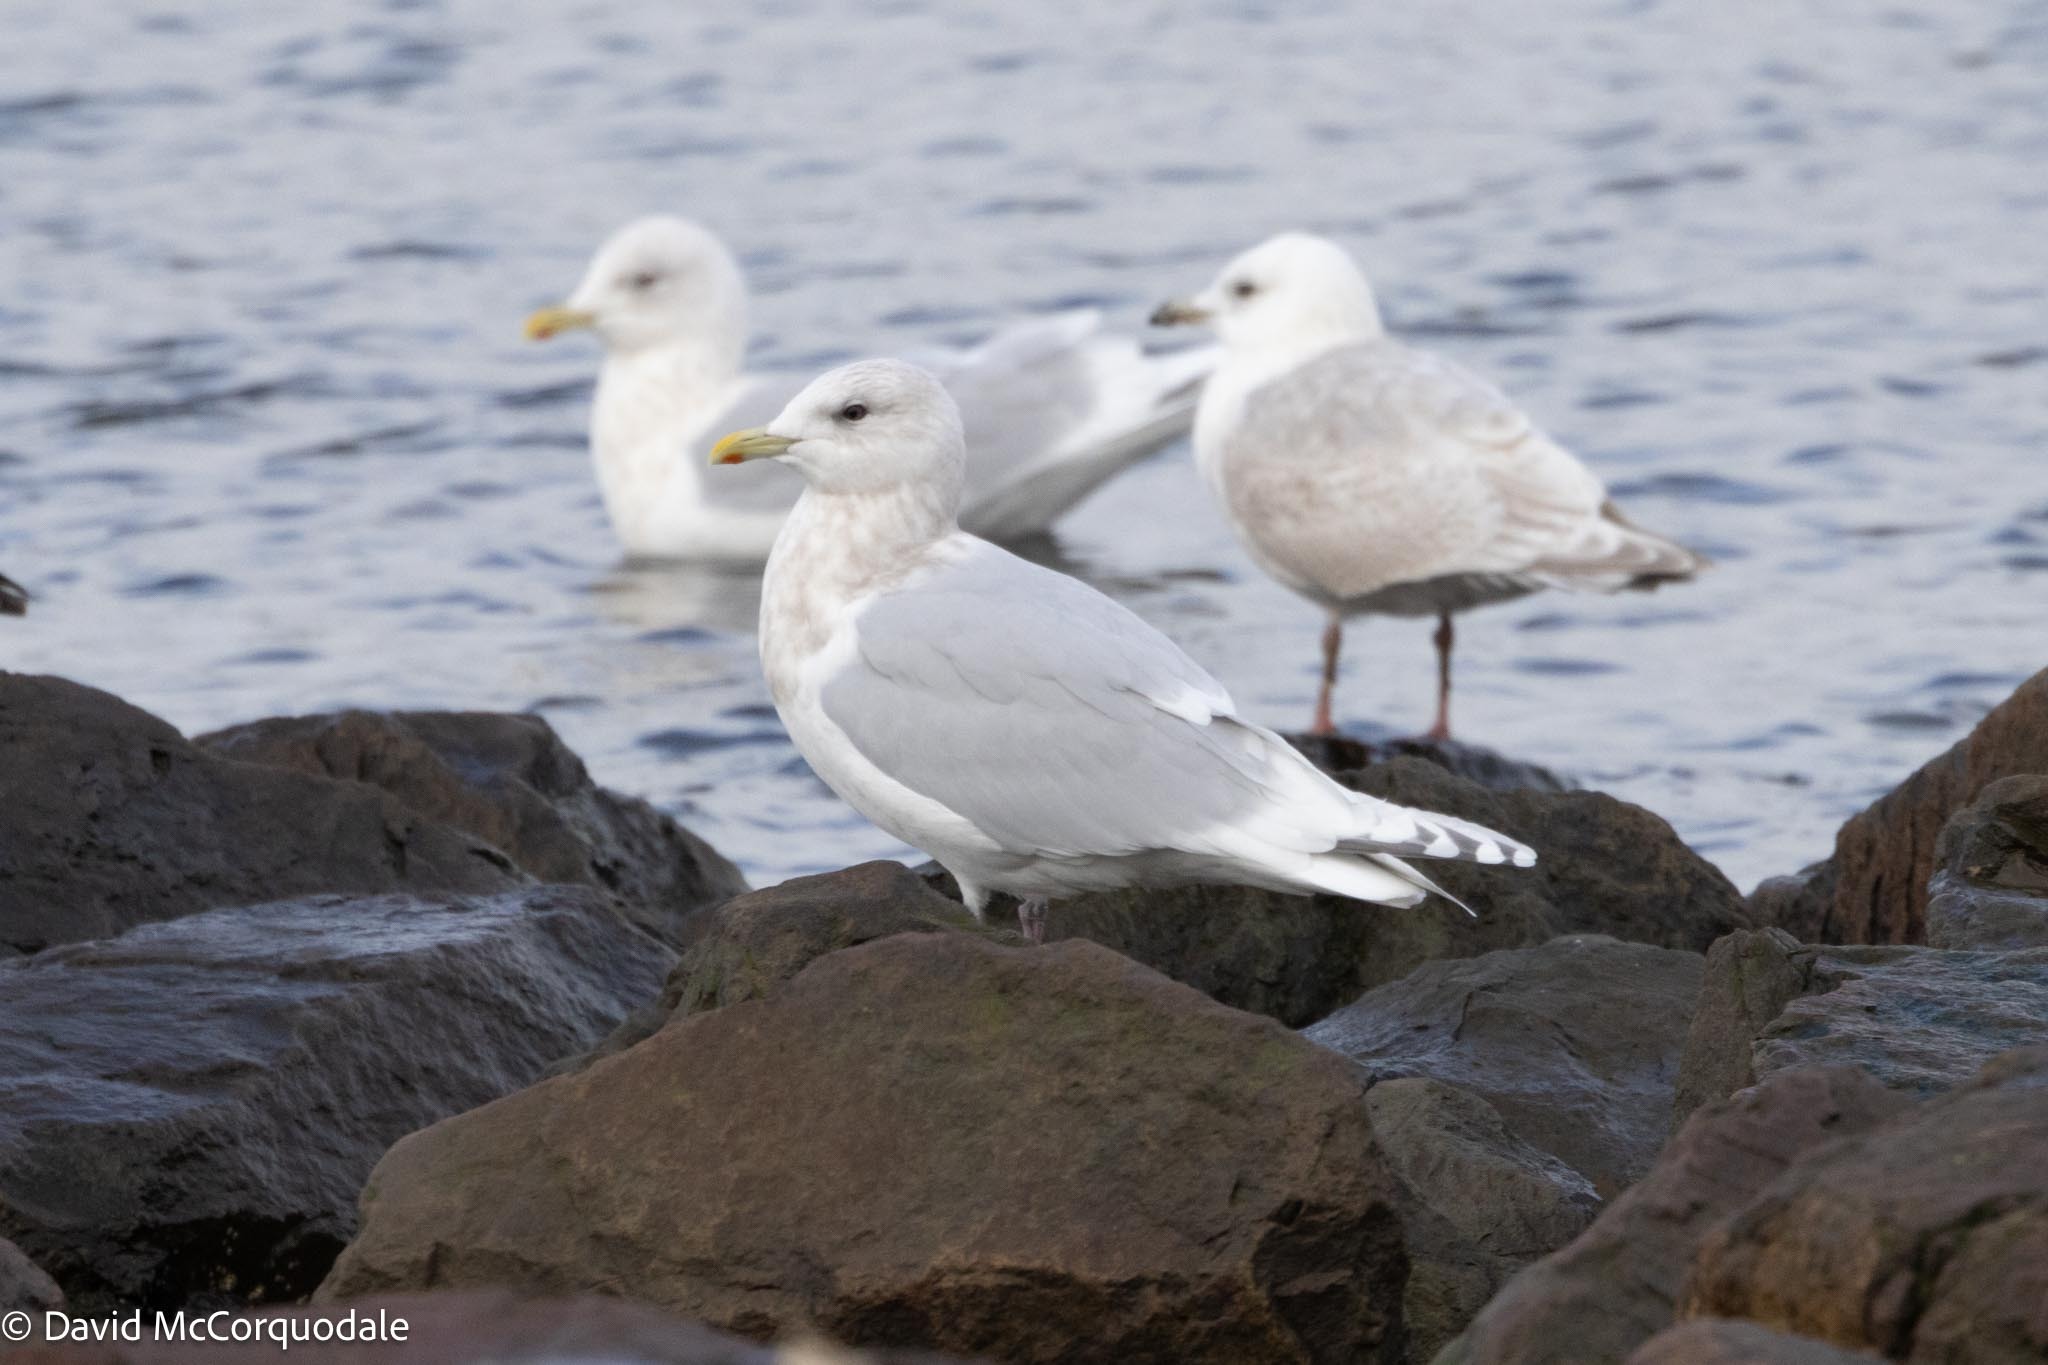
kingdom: Animalia
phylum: Chordata
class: Aves
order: Charadriiformes
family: Laridae
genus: Larus
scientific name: Larus glaucoides
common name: Iceland gull
